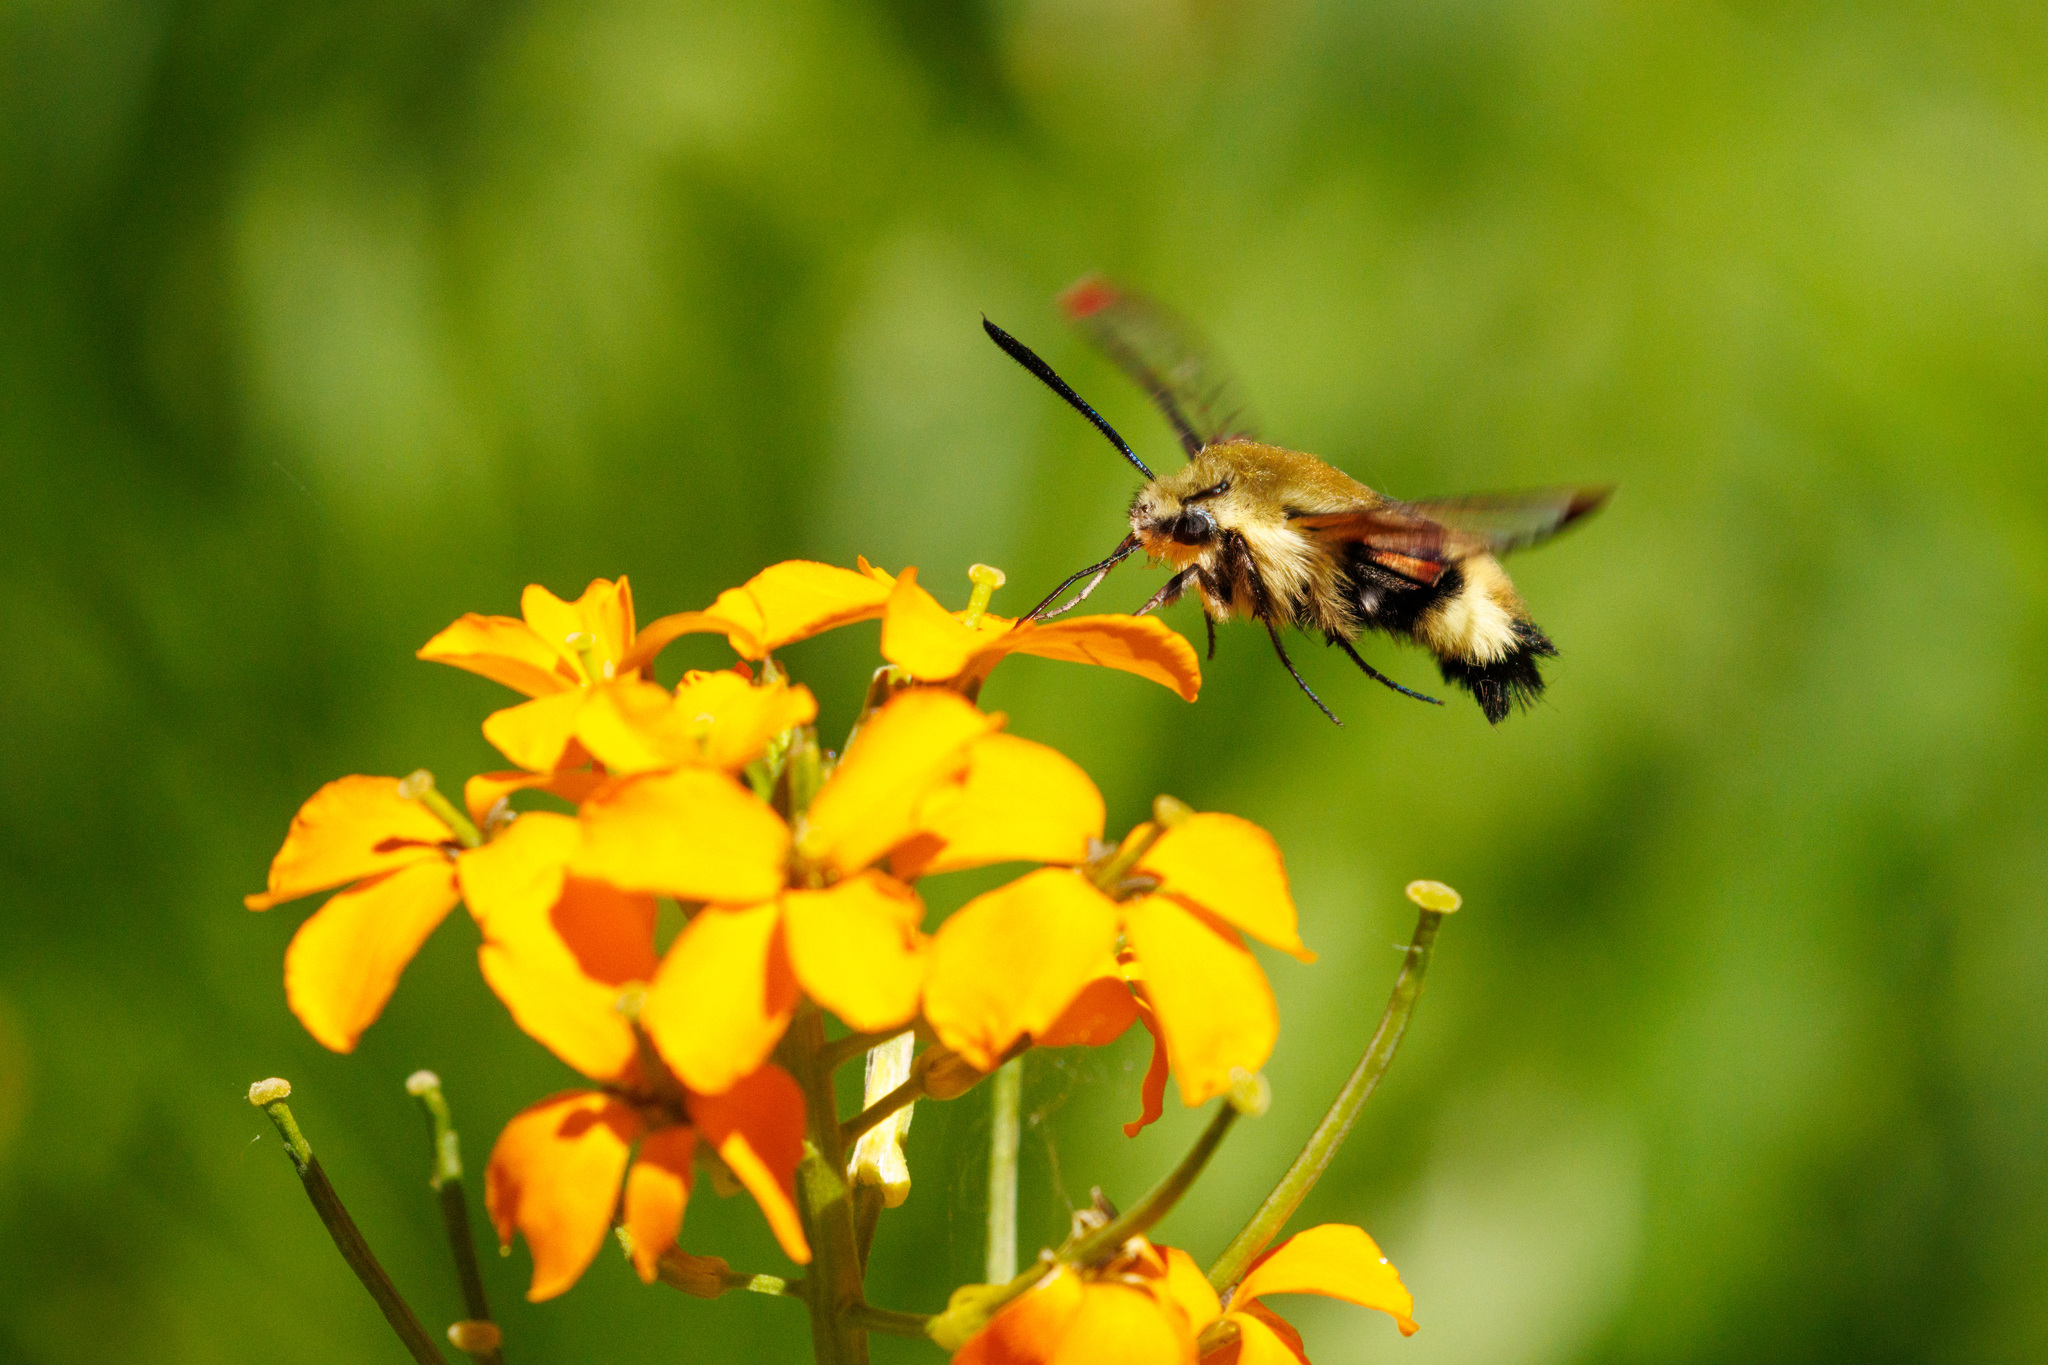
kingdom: Animalia
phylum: Arthropoda
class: Insecta
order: Lepidoptera
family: Sphingidae
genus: Hemaris
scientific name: Hemaris thetis
